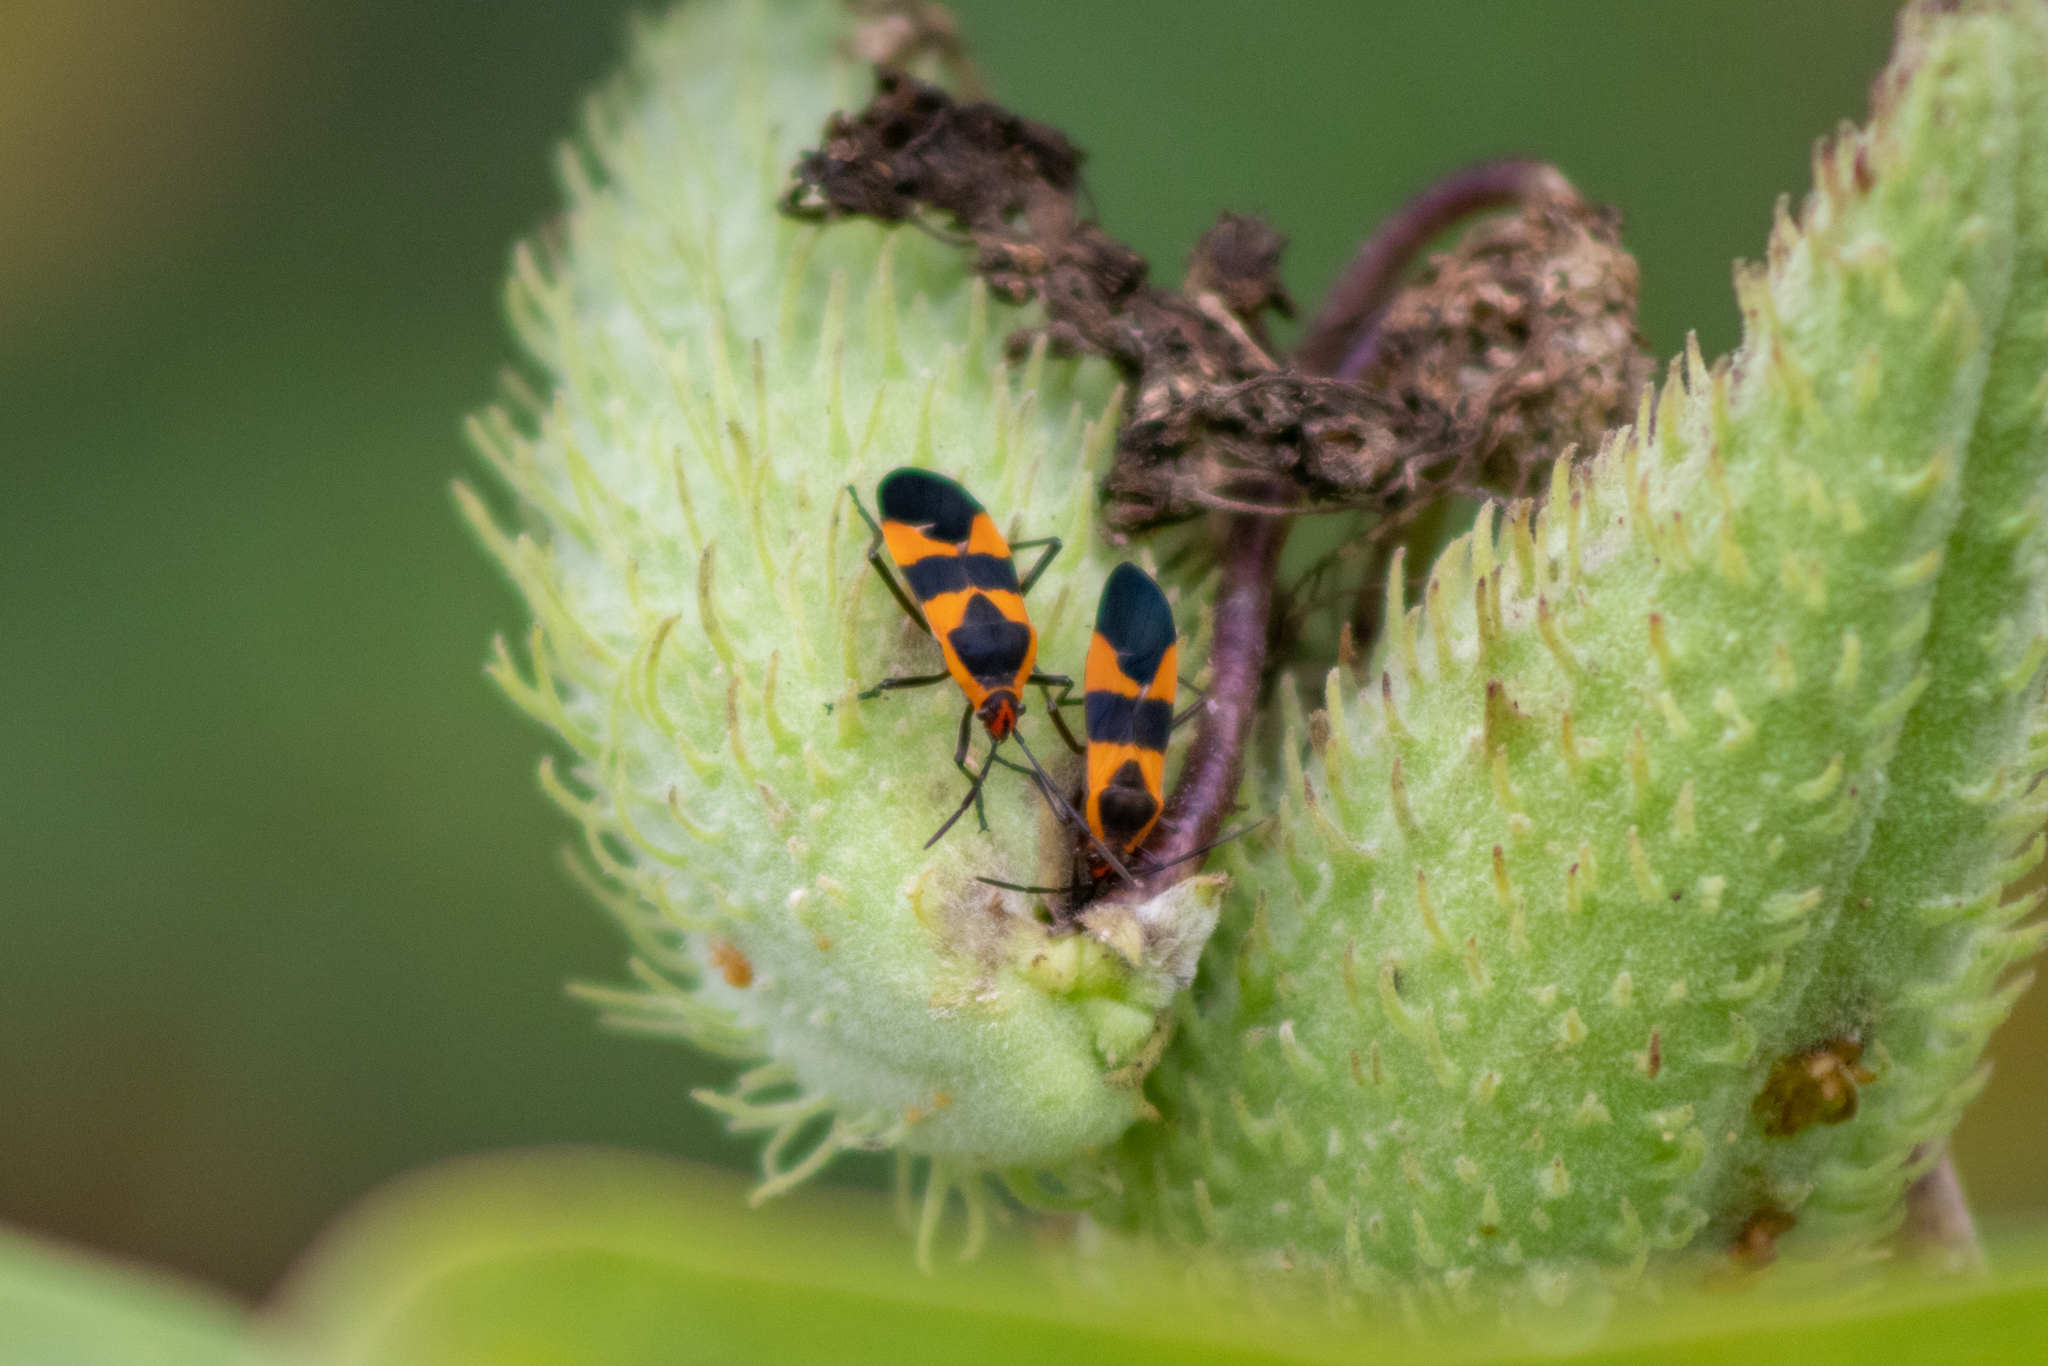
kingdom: Animalia
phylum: Arthropoda
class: Insecta
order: Hemiptera
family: Lygaeidae
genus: Oncopeltus
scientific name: Oncopeltus fasciatus
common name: Large milkweed bug
